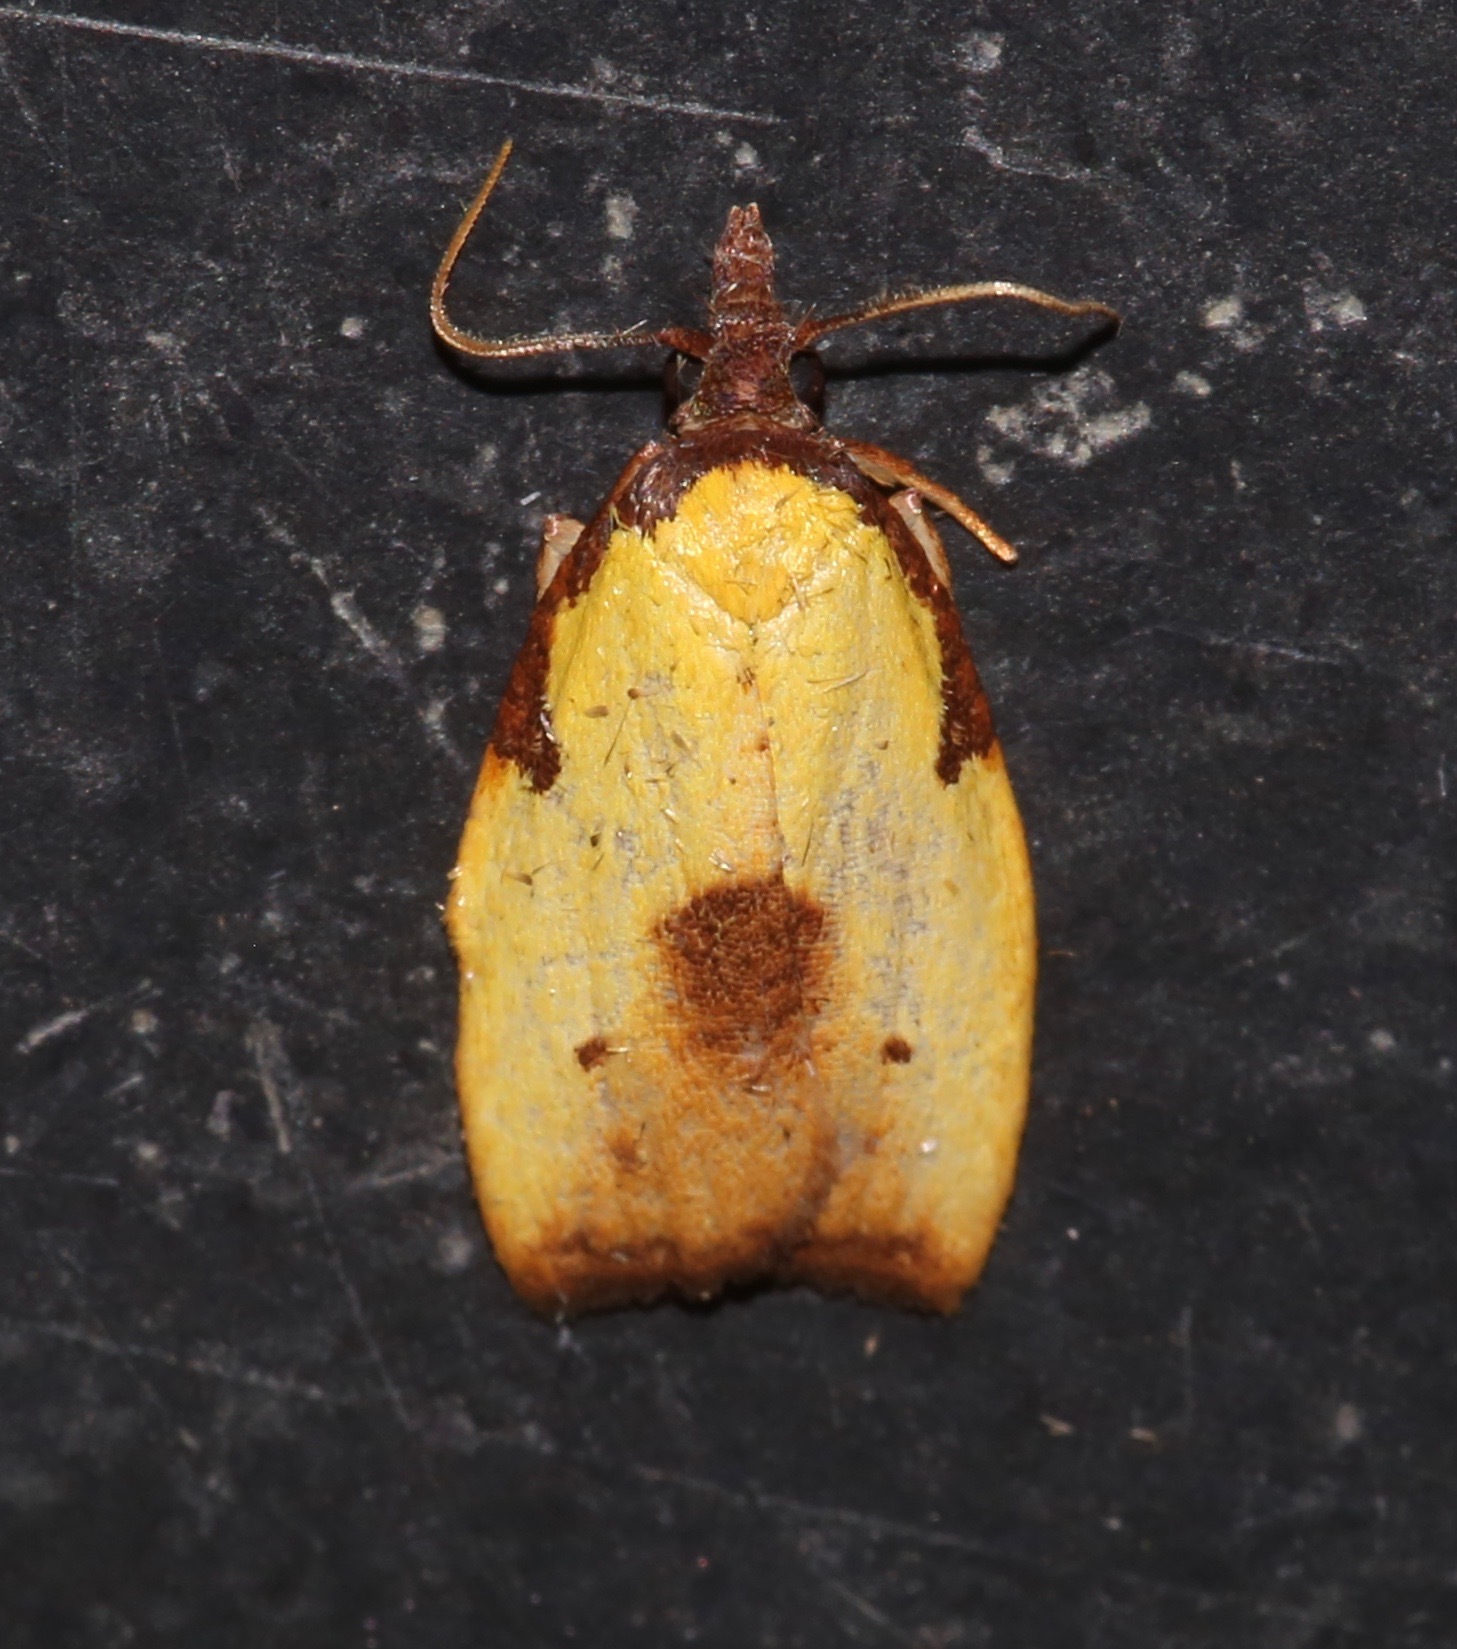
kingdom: Animalia
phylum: Arthropoda
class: Insecta
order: Lepidoptera
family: Tortricidae
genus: Cenopis
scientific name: Cenopis lamberti
